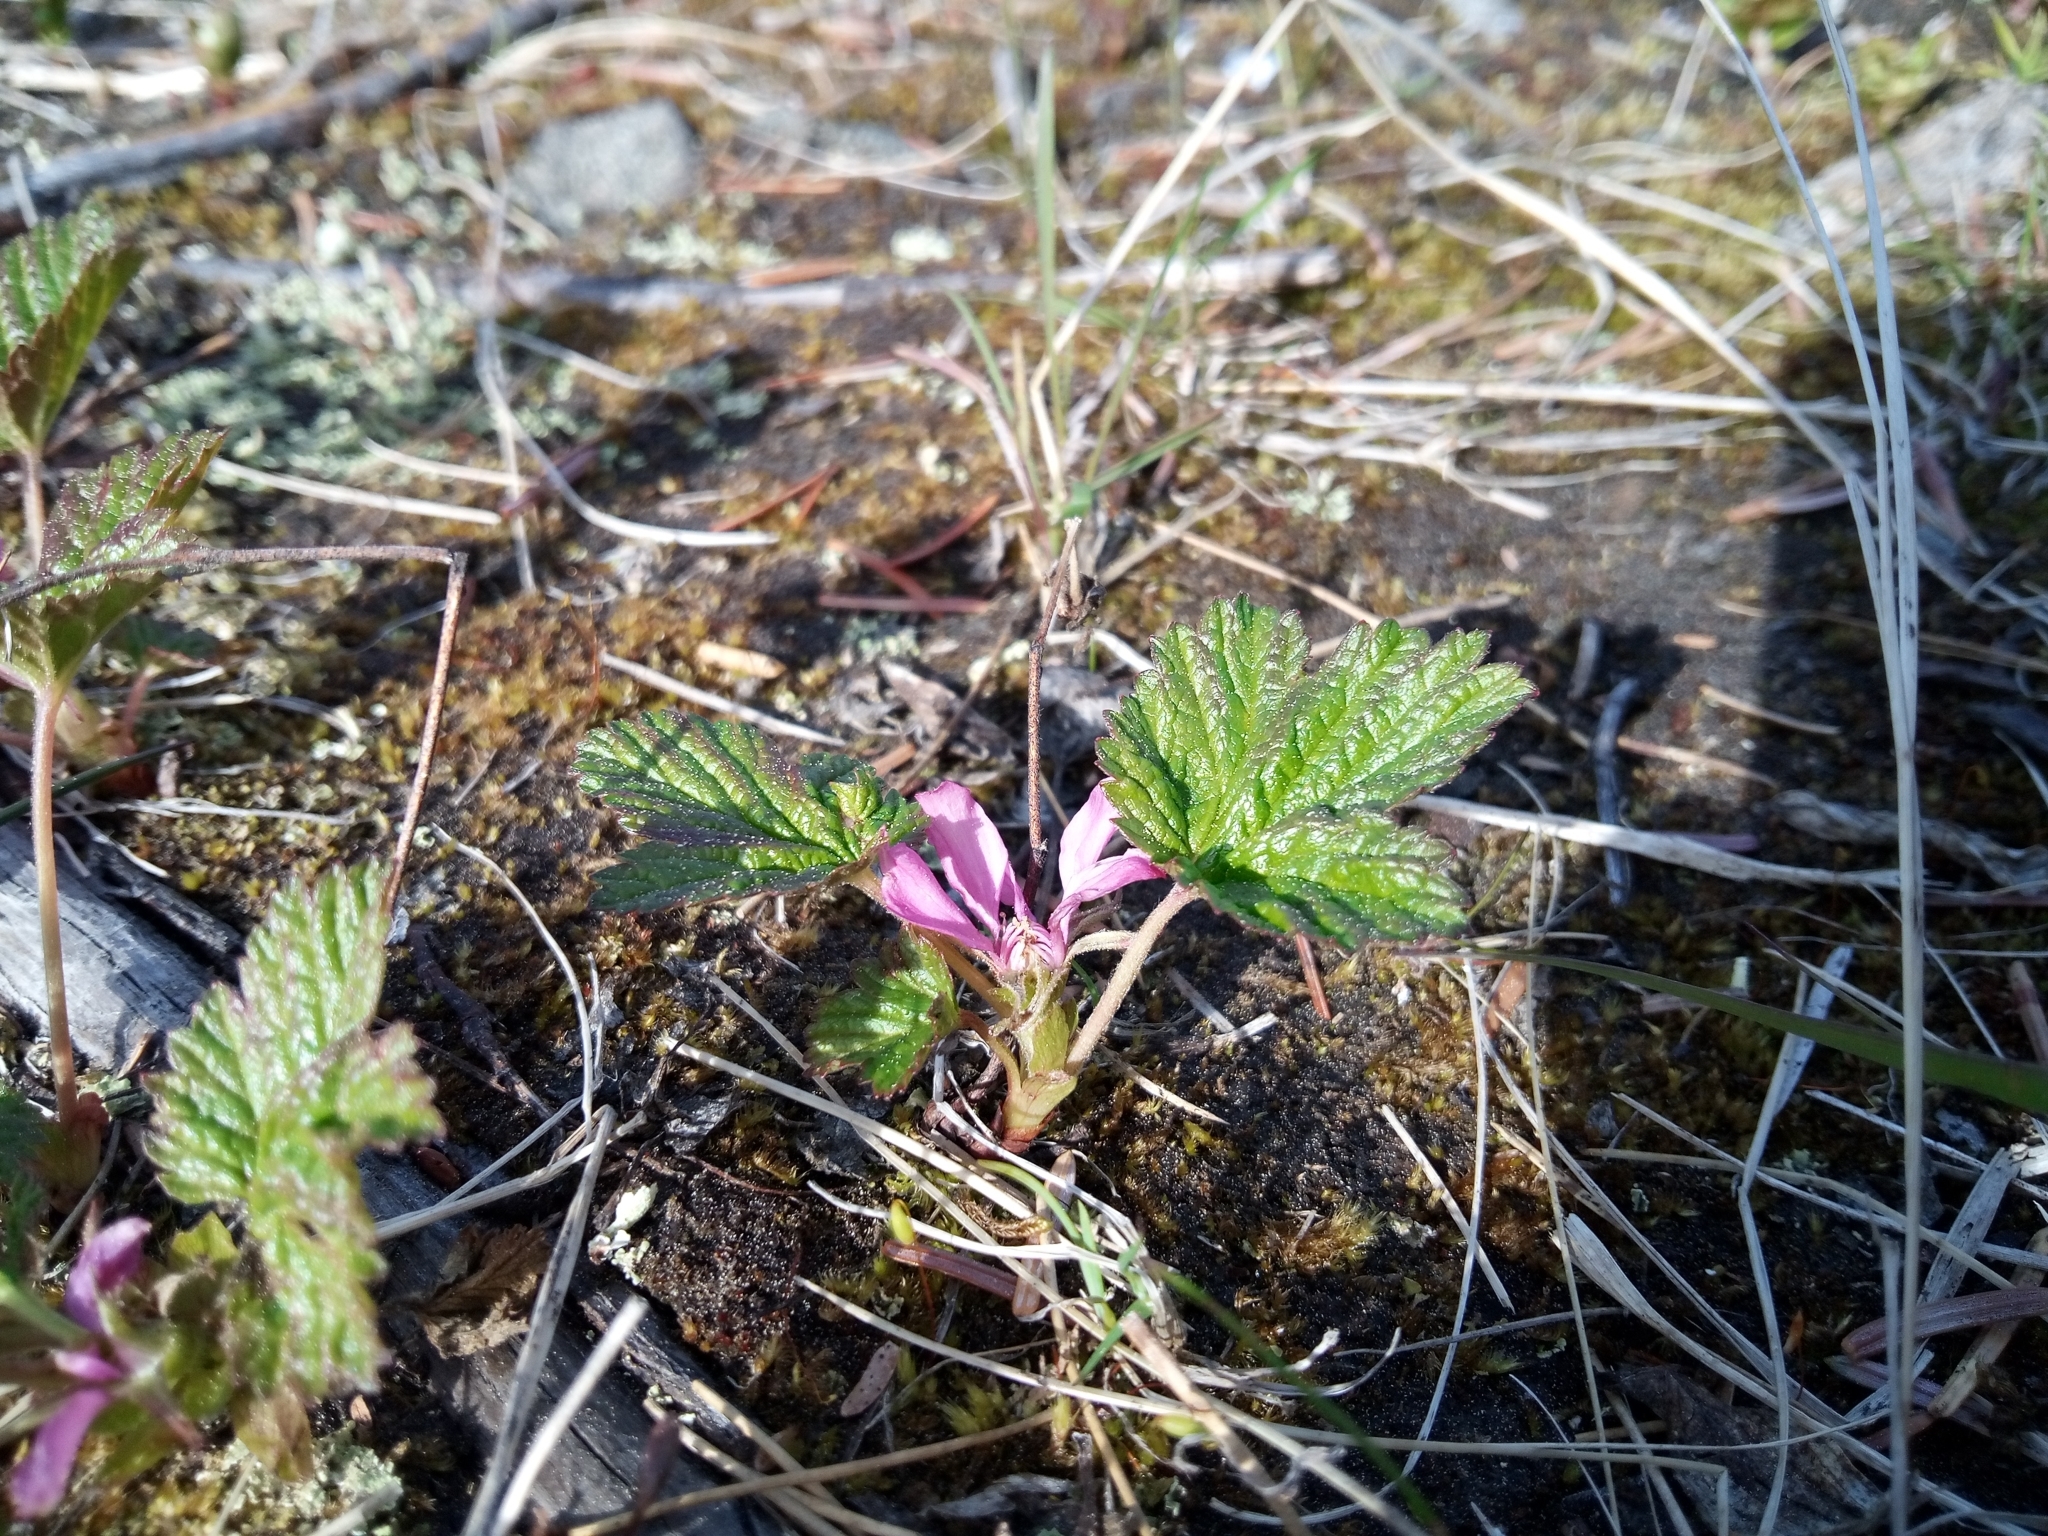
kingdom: Plantae
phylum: Tracheophyta
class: Magnoliopsida
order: Rosales
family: Rosaceae
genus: Rubus
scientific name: Rubus arcticus
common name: Arctic bramble
